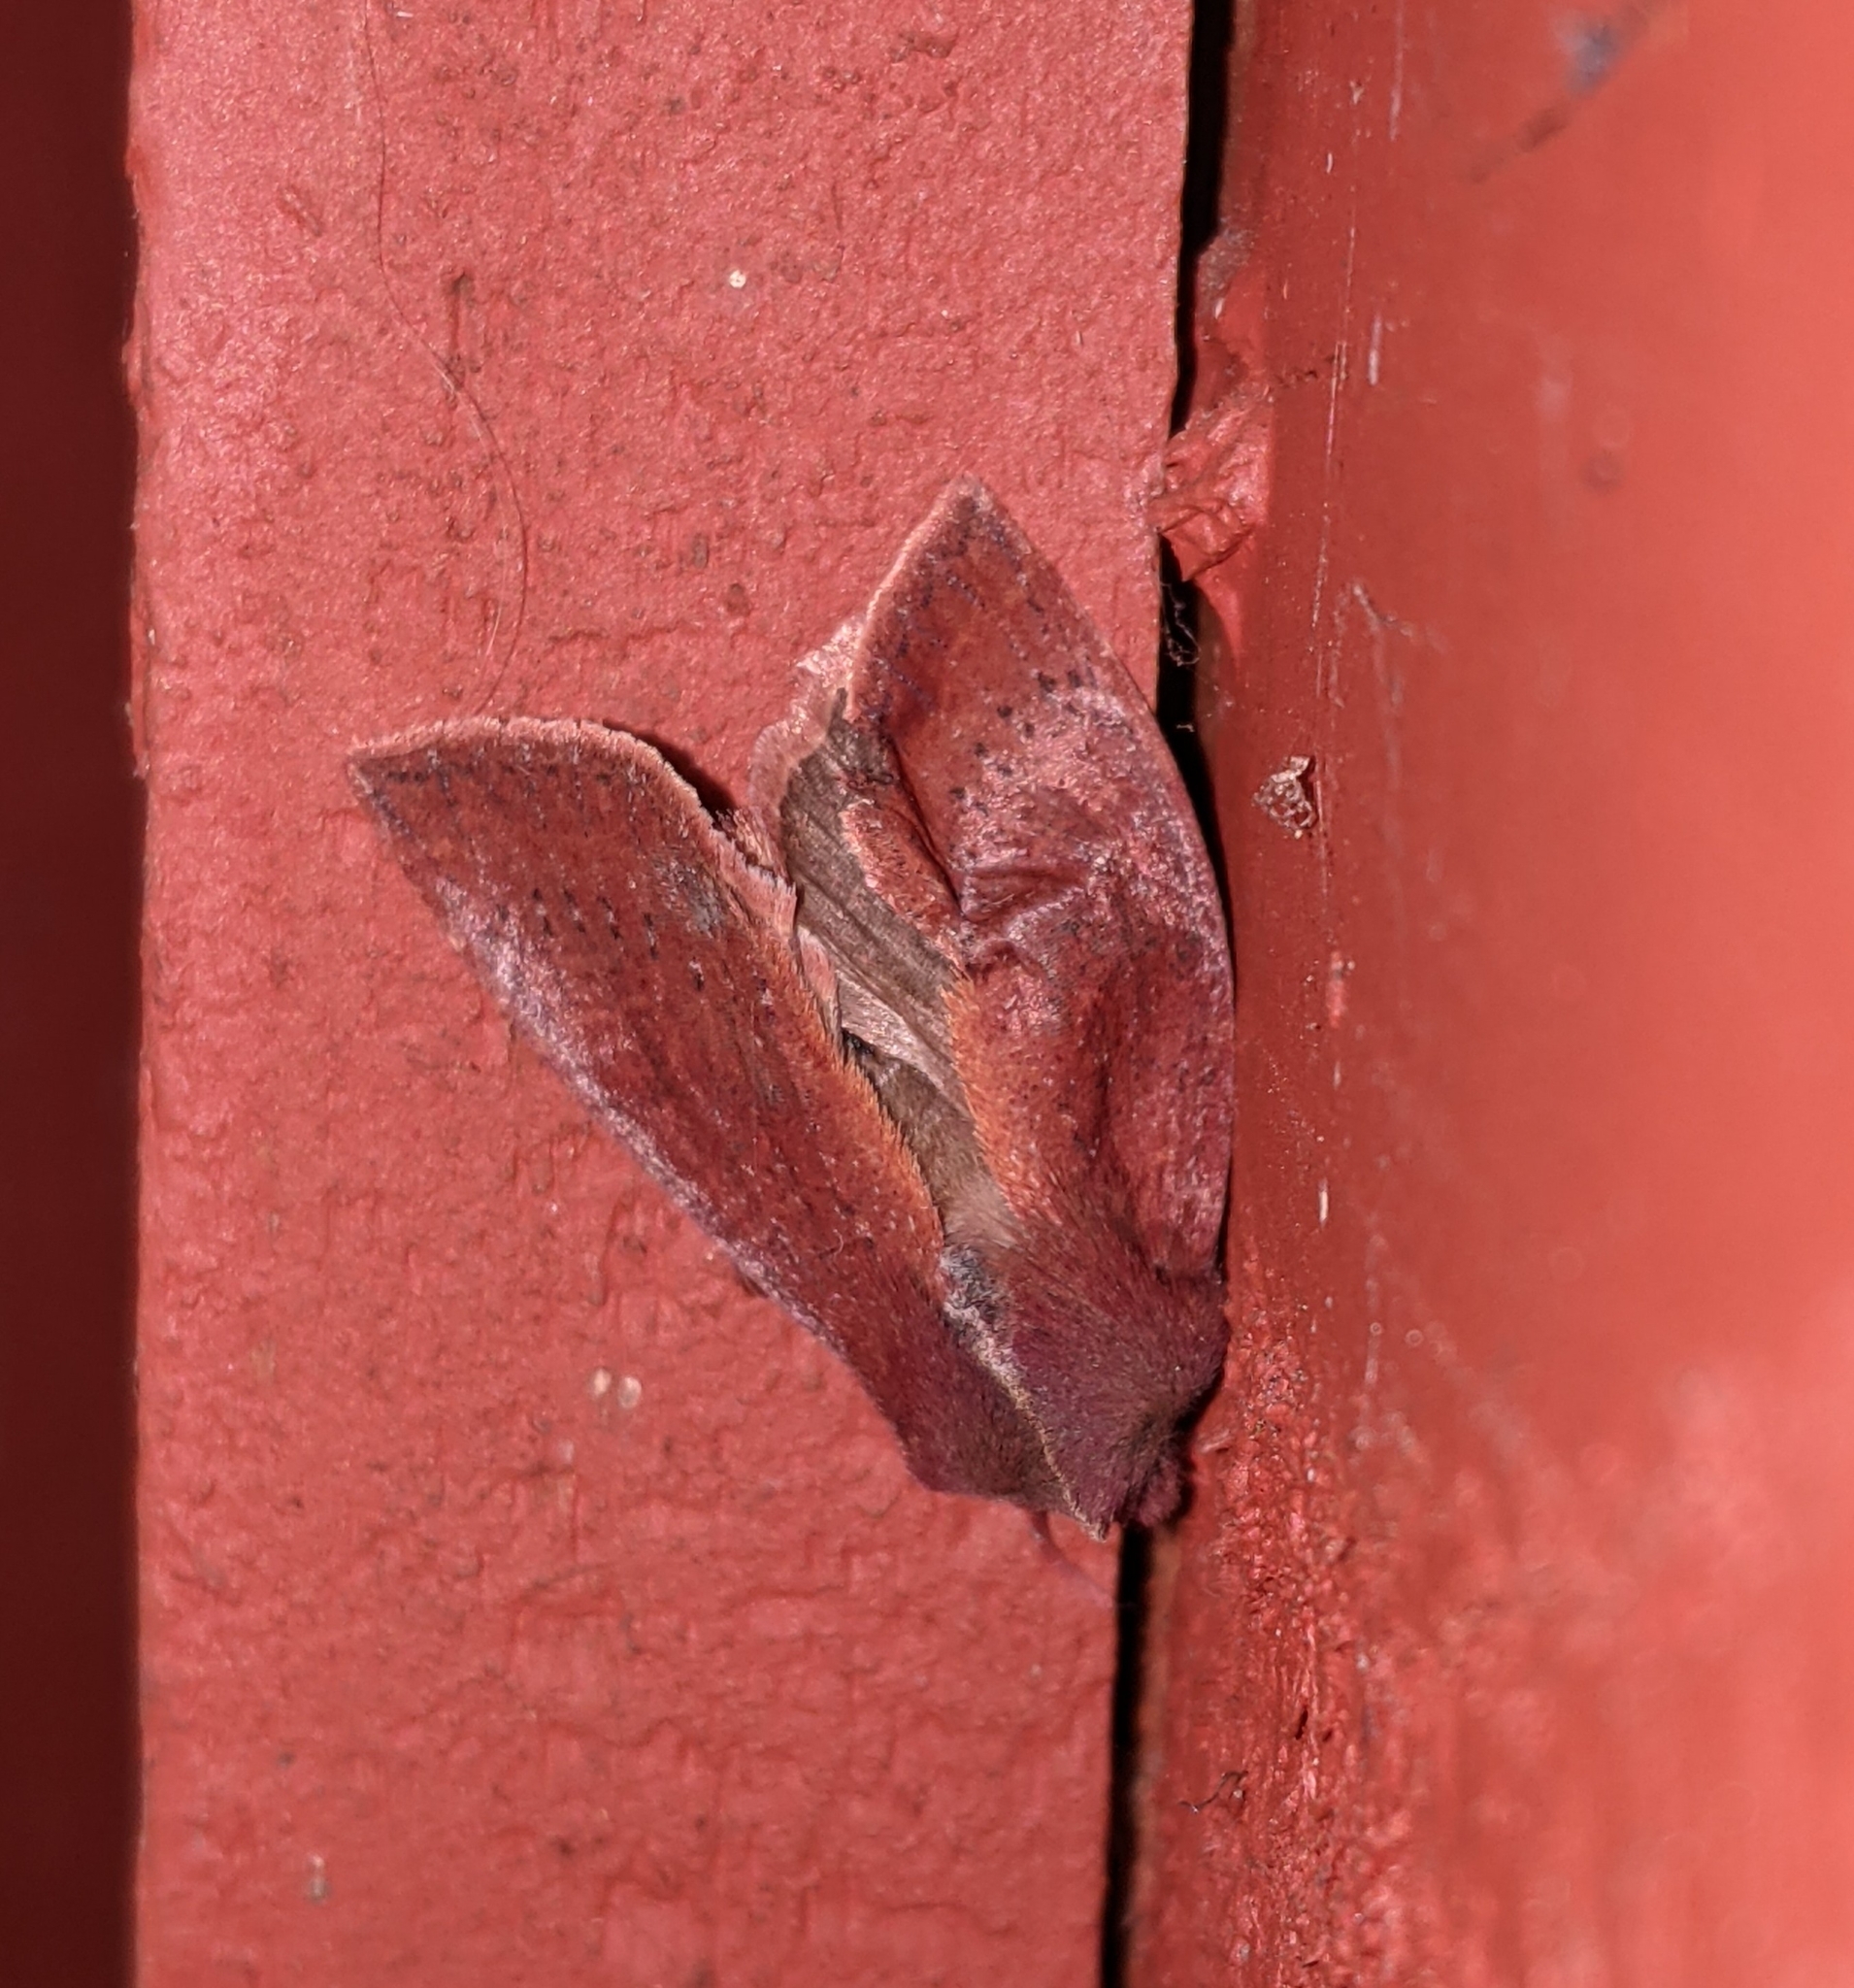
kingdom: Animalia
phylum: Arthropoda
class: Insecta
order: Lepidoptera
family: Noctuidae
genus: Orthosia
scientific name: Orthosia transparens
